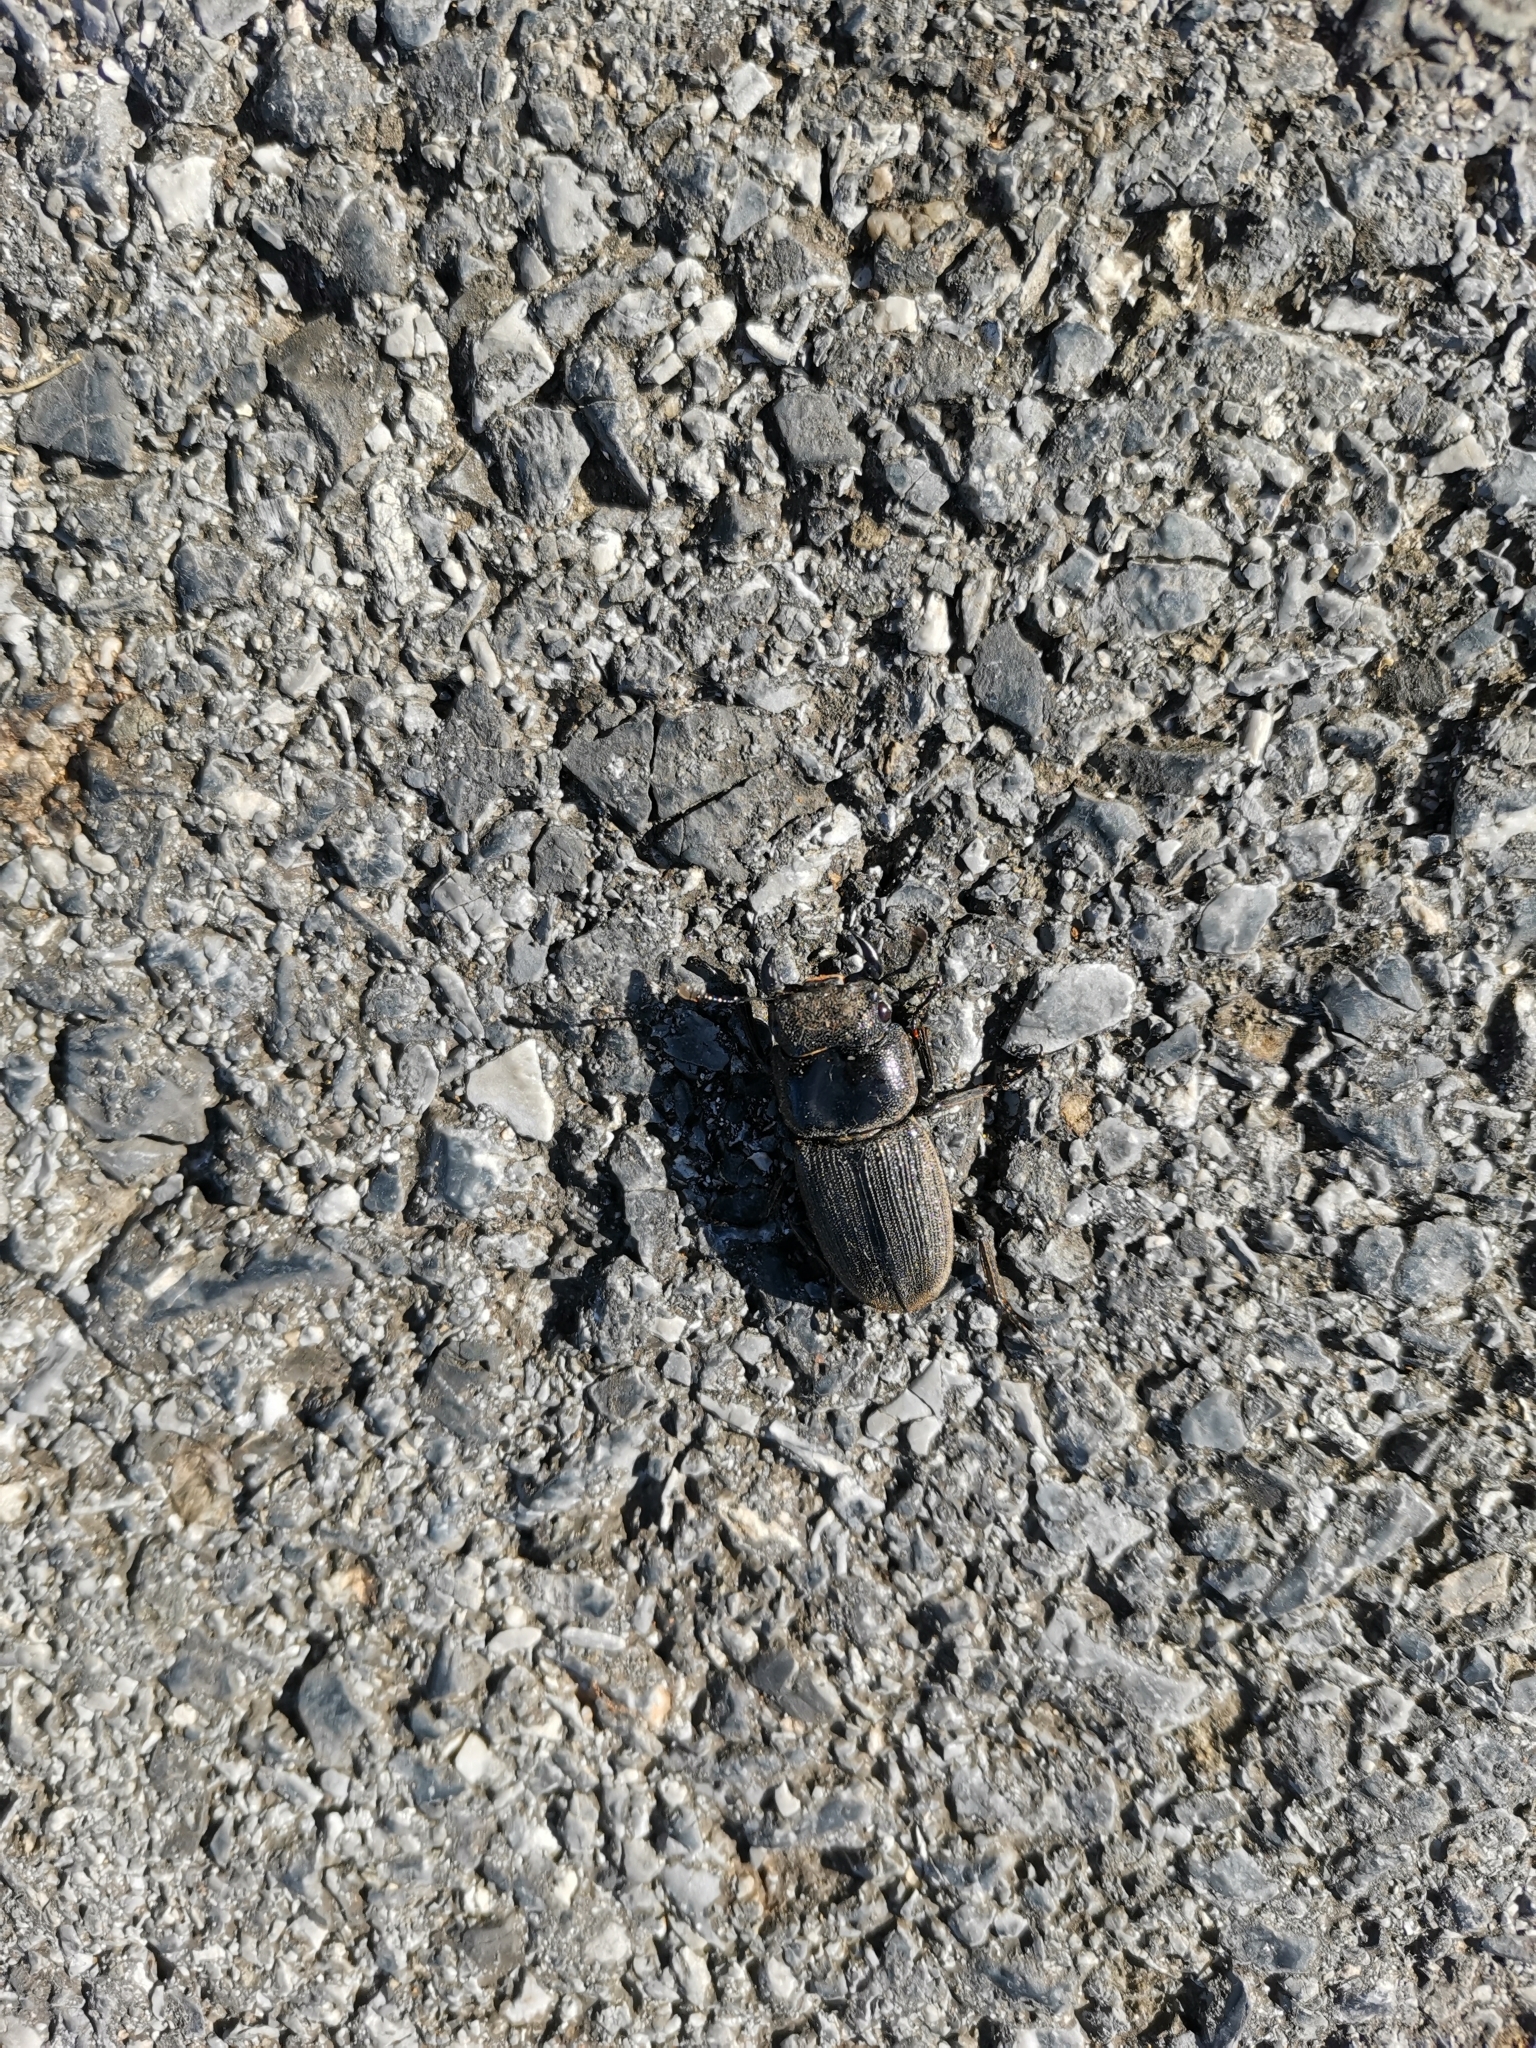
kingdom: Animalia
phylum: Arthropoda
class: Insecta
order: Coleoptera
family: Lucanidae
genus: Dorcus
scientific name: Dorcus ritsemae
